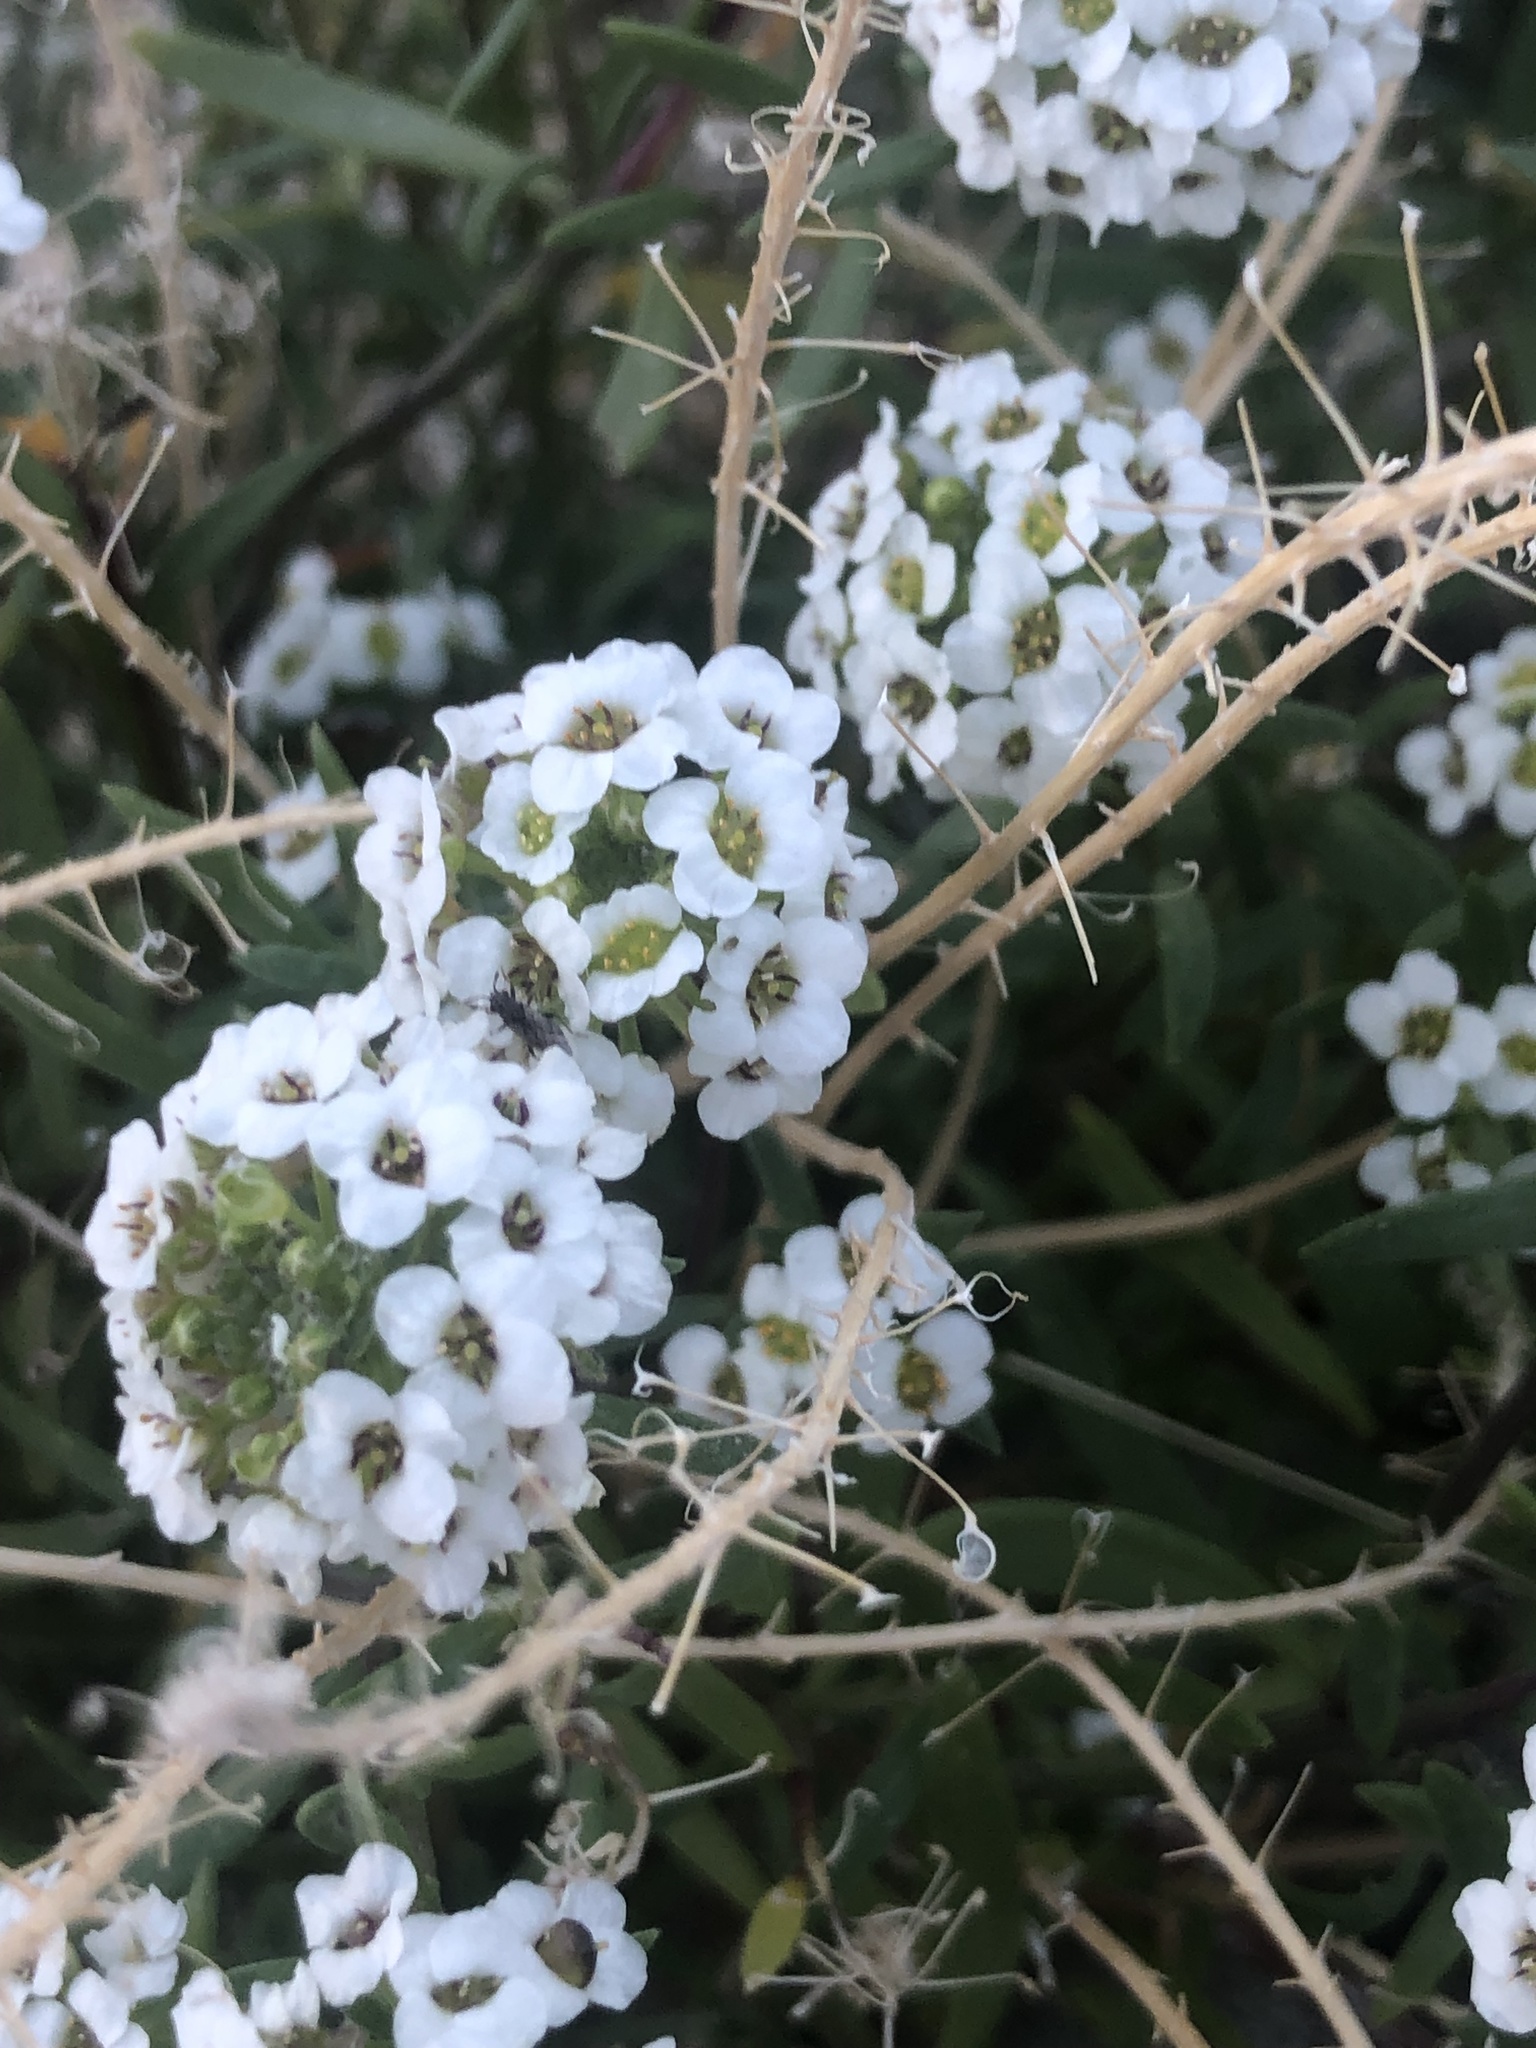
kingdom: Plantae
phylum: Tracheophyta
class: Magnoliopsida
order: Brassicales
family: Brassicaceae
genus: Lobularia
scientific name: Lobularia maritima
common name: Sweet alison
